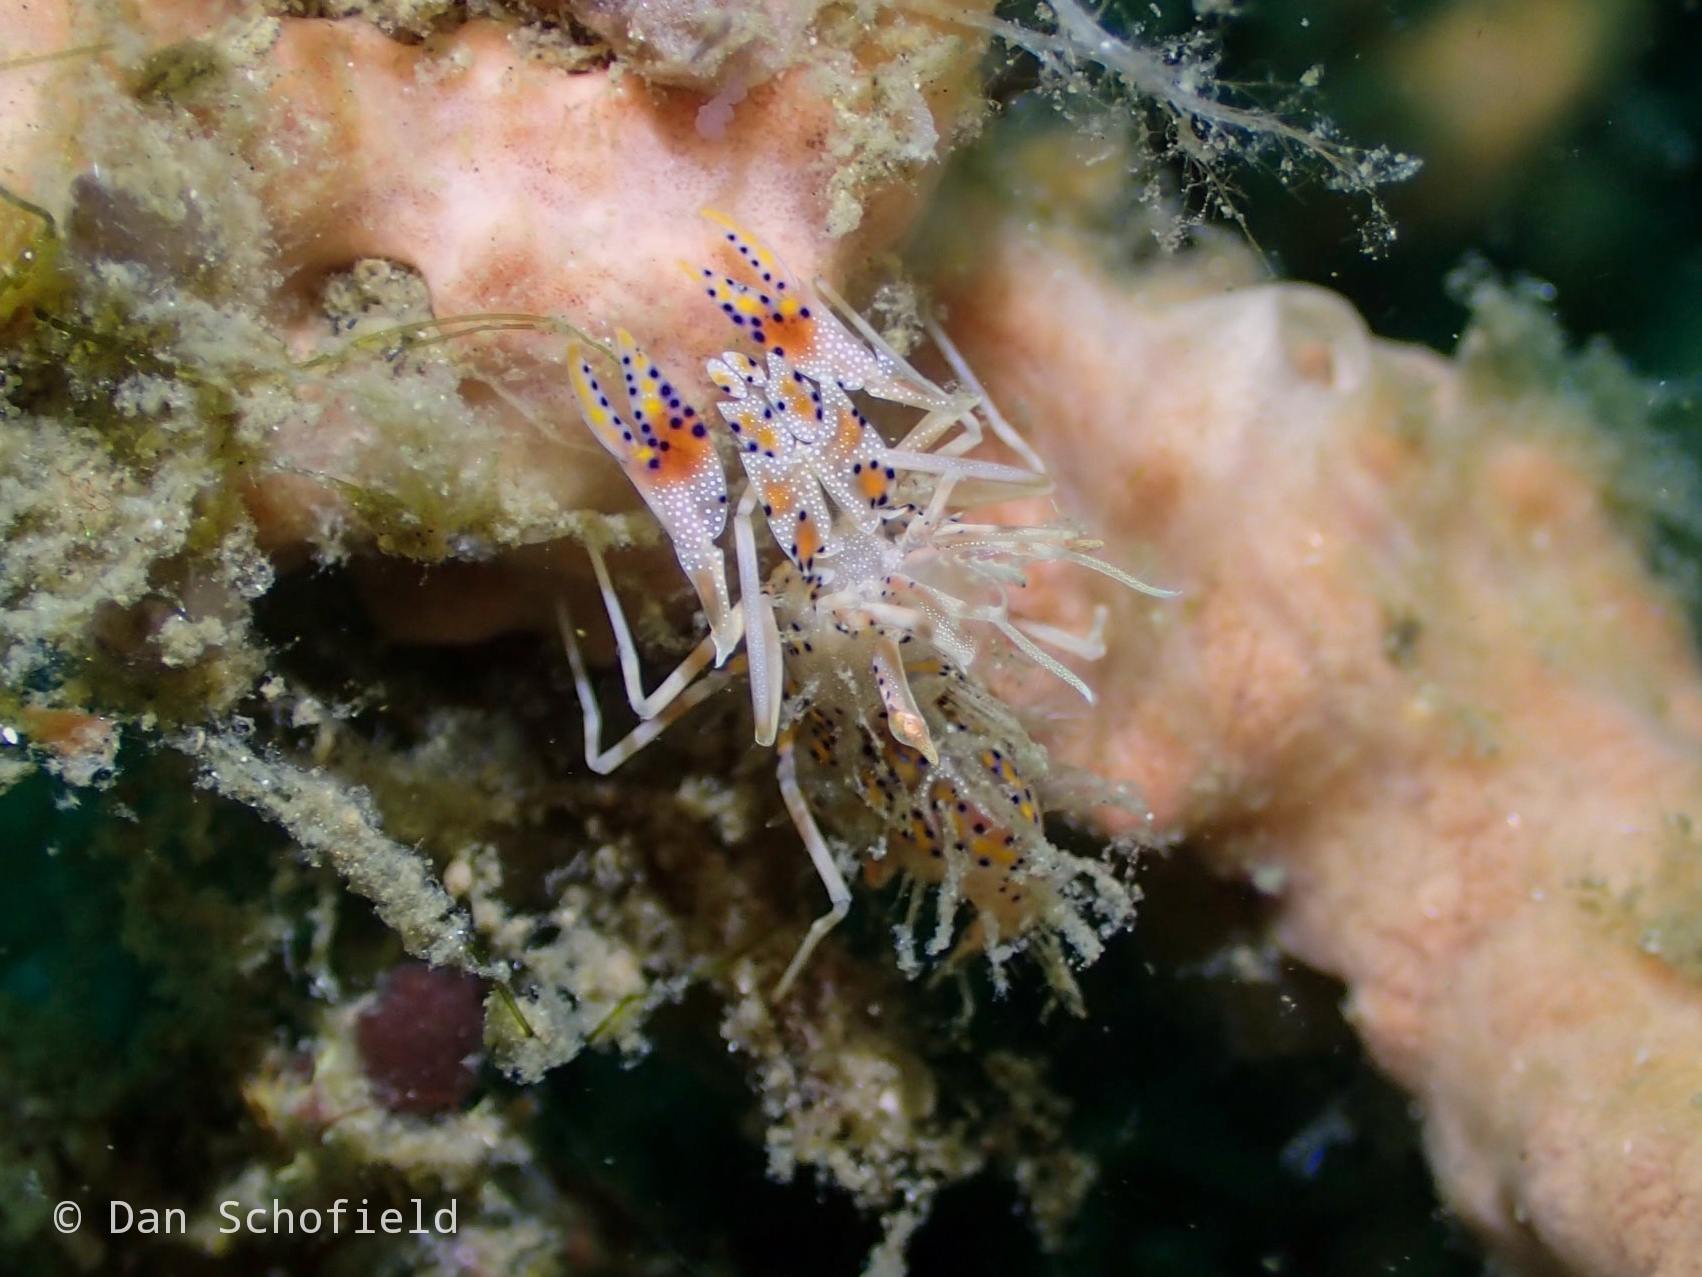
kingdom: Animalia
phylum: Arthropoda
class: Malacostraca
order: Decapoda
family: Palaemonidae
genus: Phyllognathia
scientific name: Phyllognathia ceratophthalma
